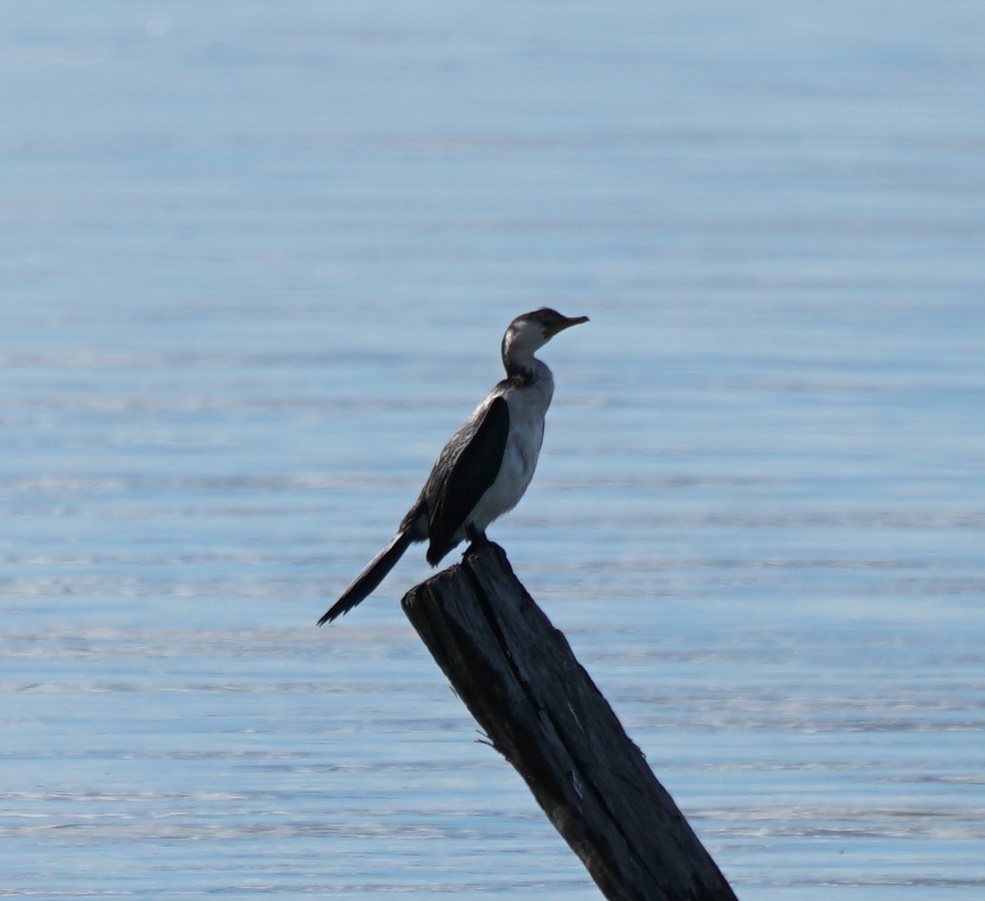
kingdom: Animalia
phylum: Chordata
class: Aves
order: Suliformes
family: Phalacrocoracidae
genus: Microcarbo
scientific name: Microcarbo melanoleucos
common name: Little pied cormorant
